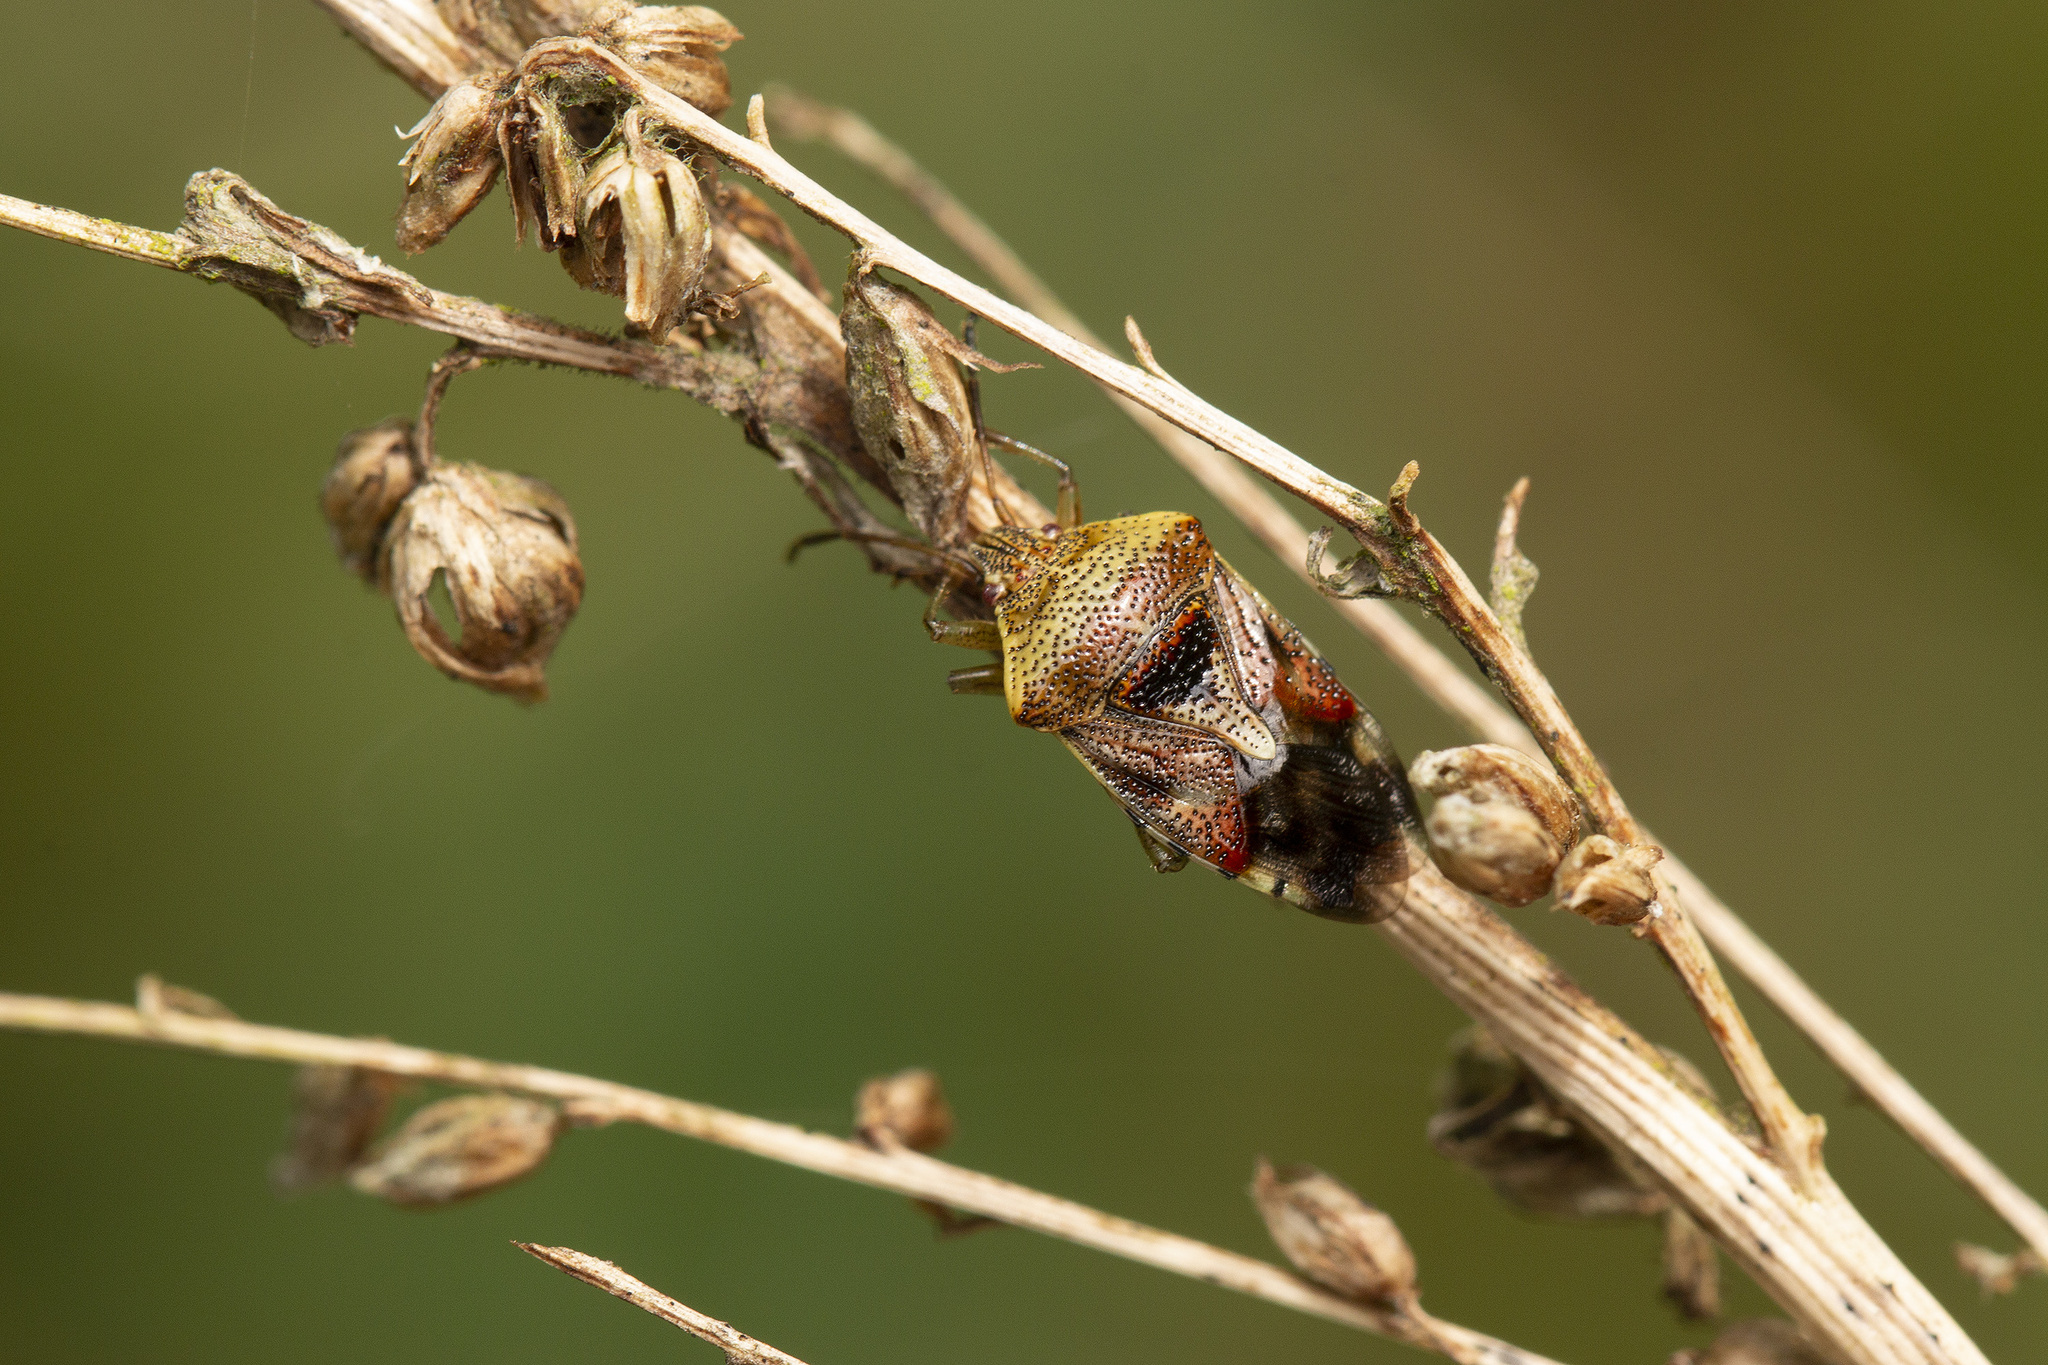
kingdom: Animalia
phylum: Arthropoda
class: Insecta
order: Hemiptera
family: Acanthosomatidae
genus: Elasmucha
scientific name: Elasmucha grisea
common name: Parent bug
